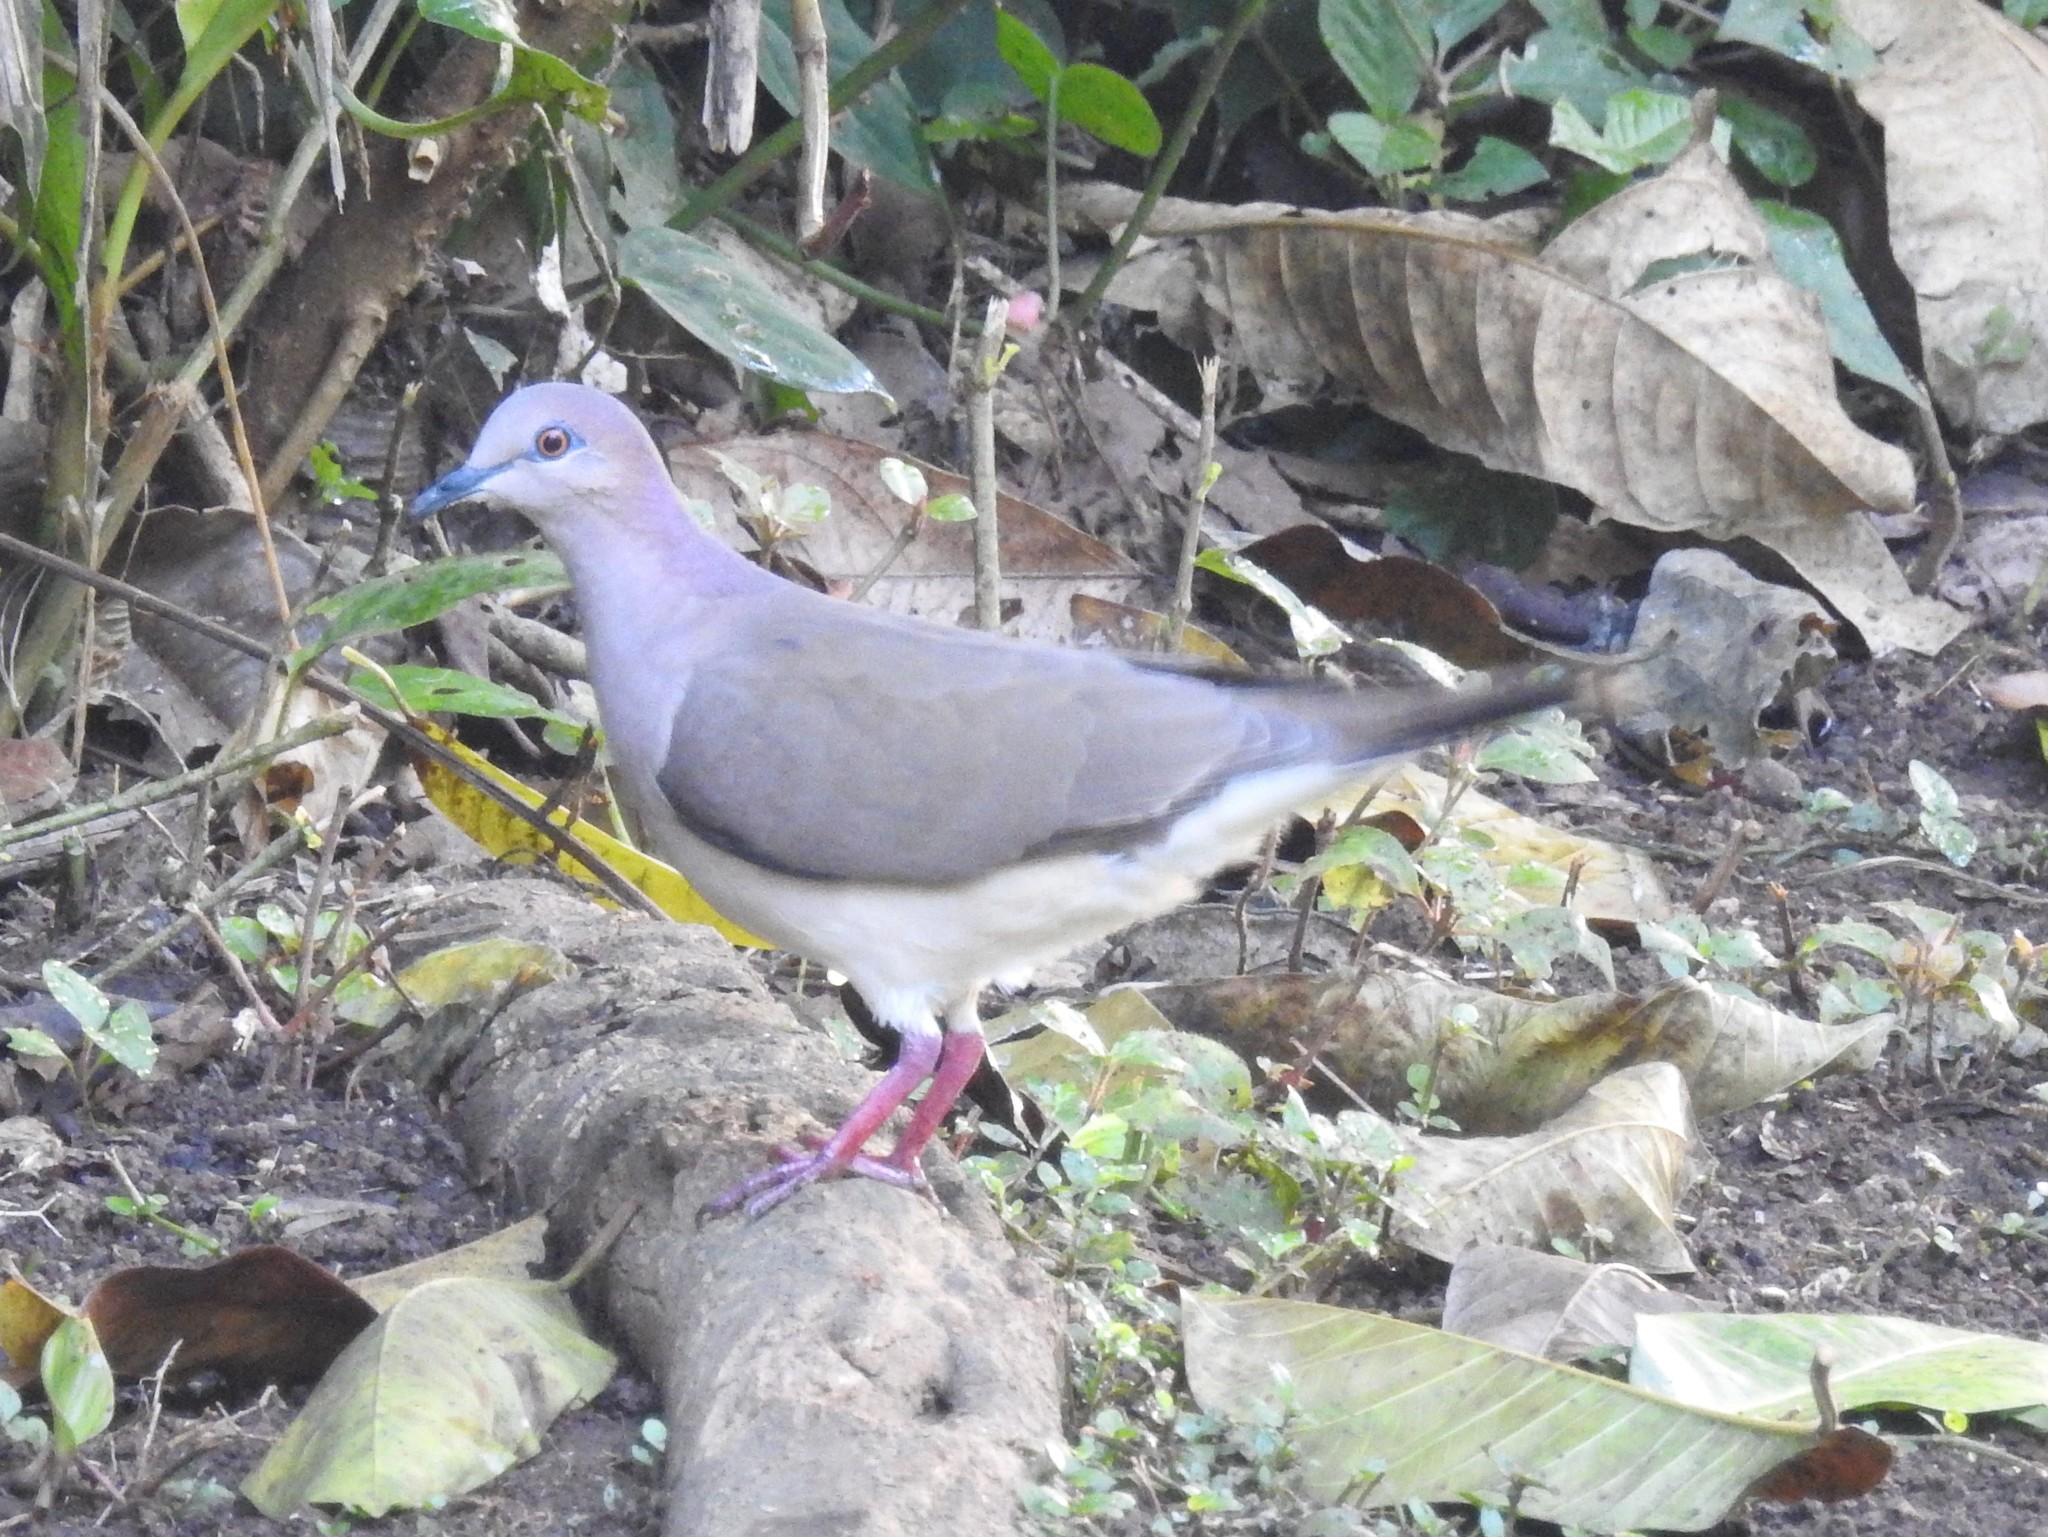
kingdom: Animalia
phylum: Chordata
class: Aves
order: Columbiformes
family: Columbidae
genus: Leptotila
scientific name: Leptotila verreauxi
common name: White-tipped dove
